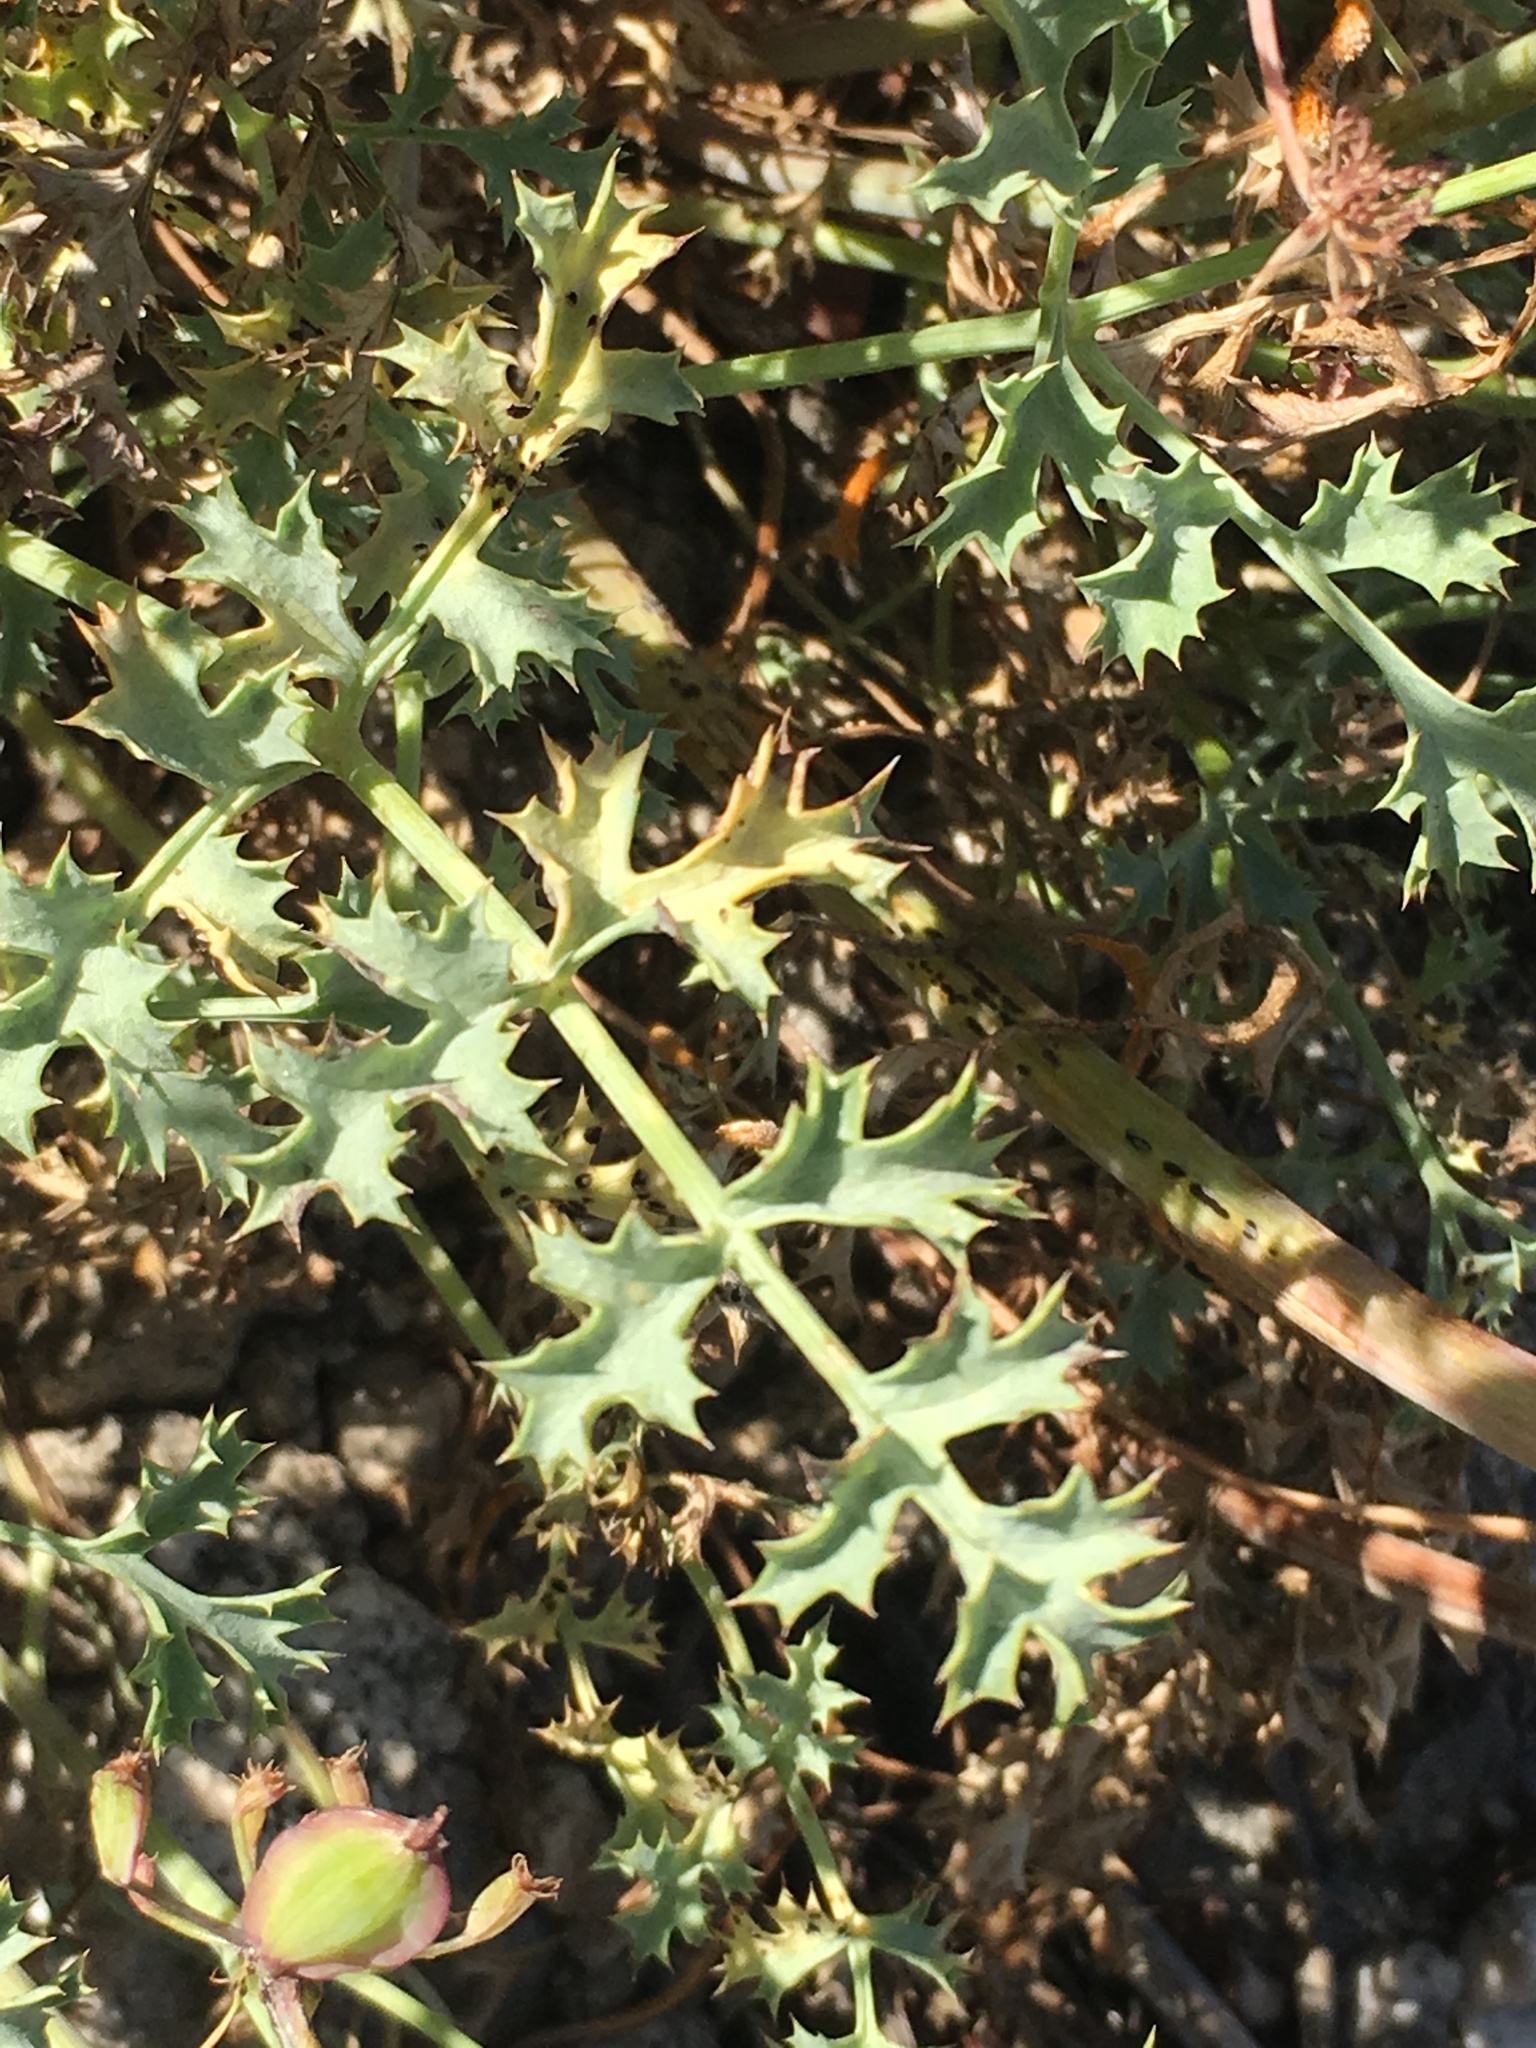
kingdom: Plantae
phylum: Tracheophyta
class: Magnoliopsida
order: Apiales
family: Apiaceae
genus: Lomatium
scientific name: Lomatium rigidum
